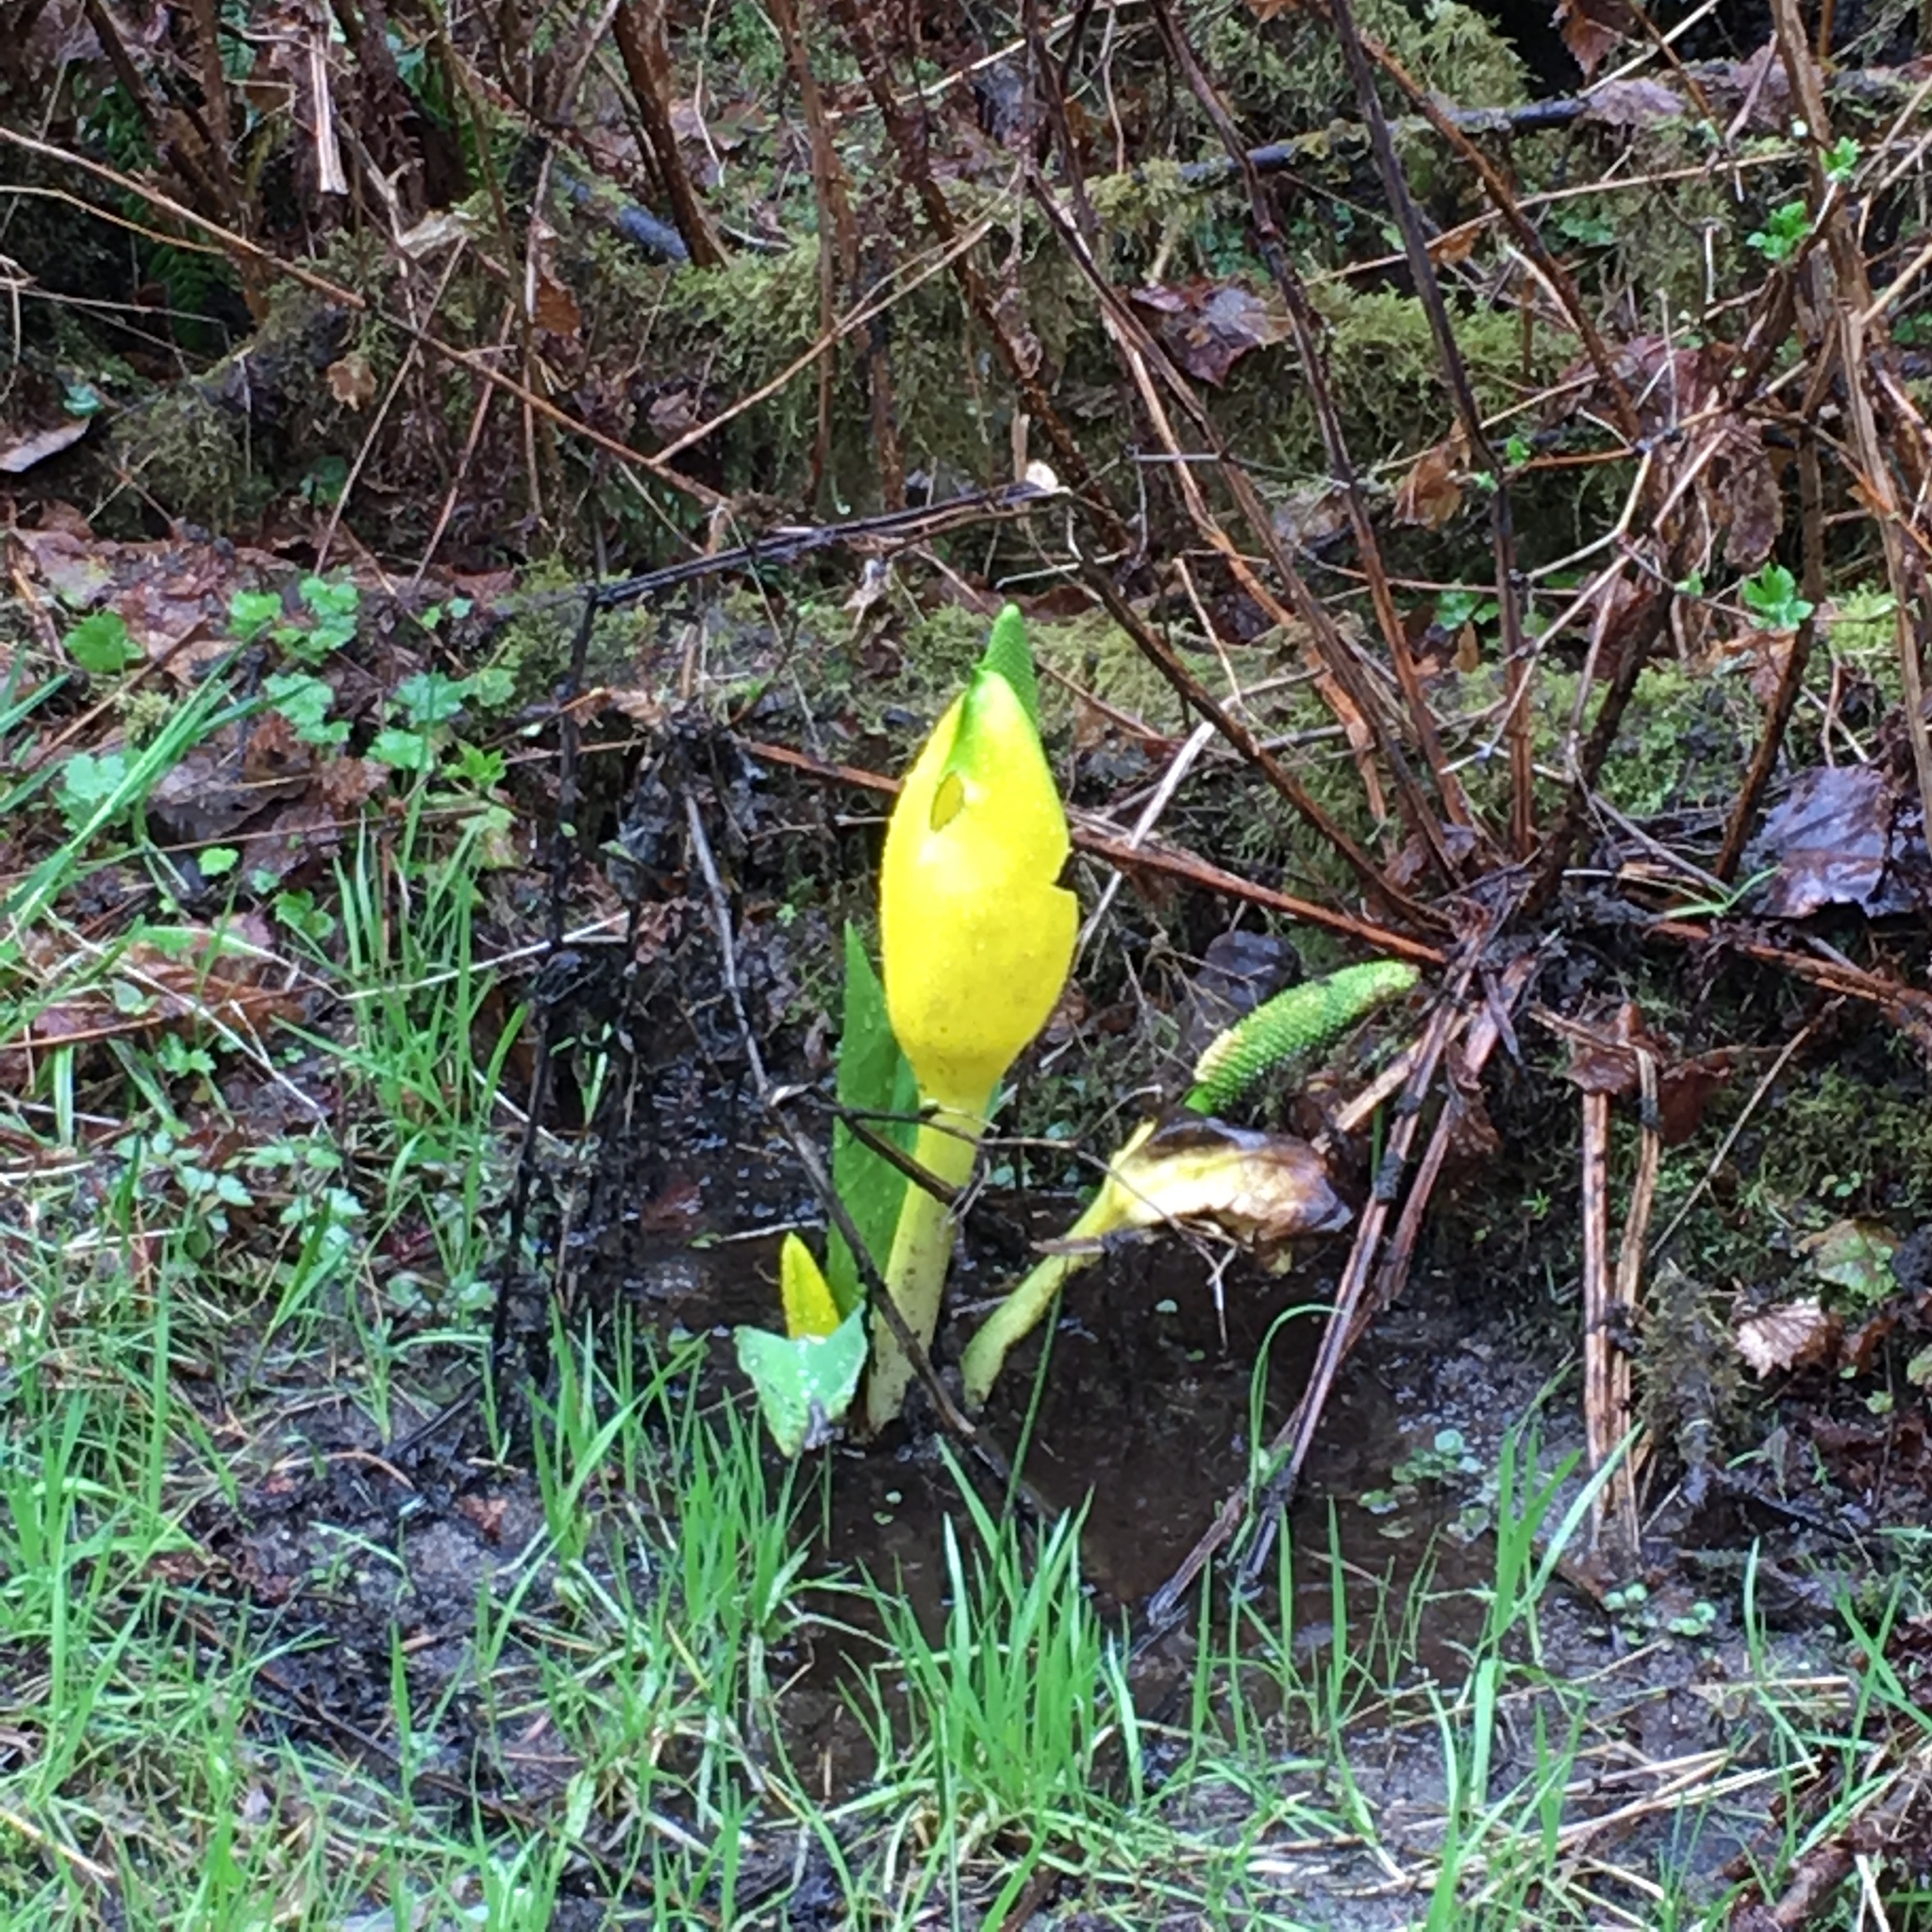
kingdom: Plantae
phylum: Tracheophyta
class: Liliopsida
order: Alismatales
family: Araceae
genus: Lysichiton
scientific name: Lysichiton americanus
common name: American skunk cabbage
